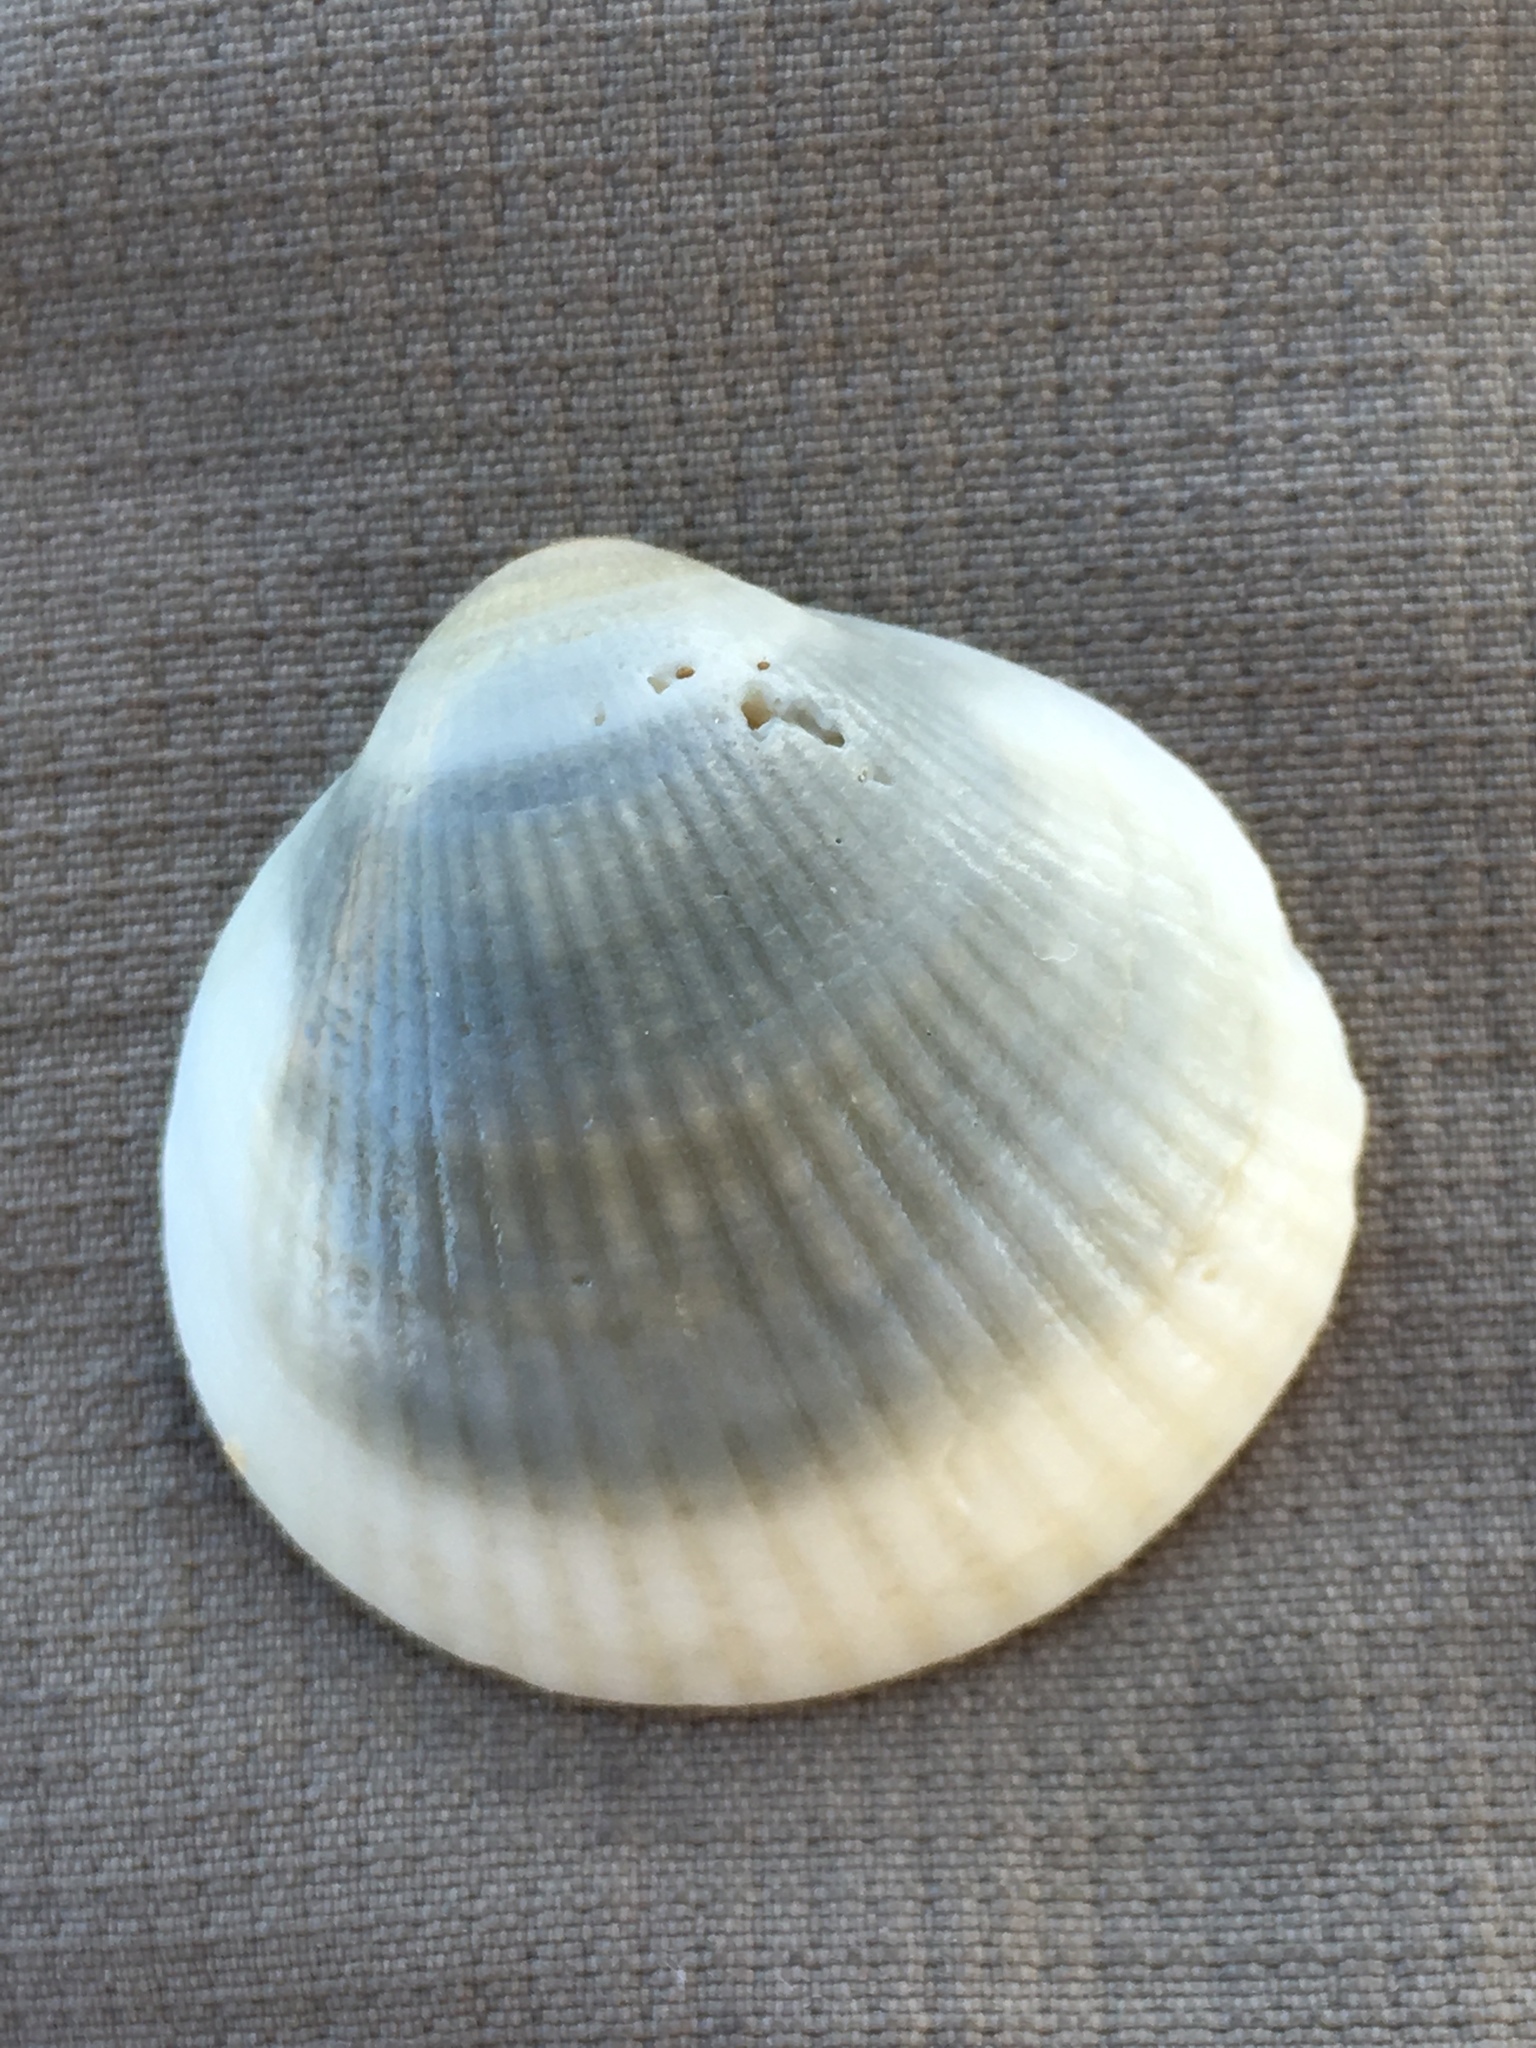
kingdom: Animalia
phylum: Mollusca
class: Bivalvia
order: Arcida
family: Glycymerididae
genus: Glycymeris
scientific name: Glycymeris spectralis
